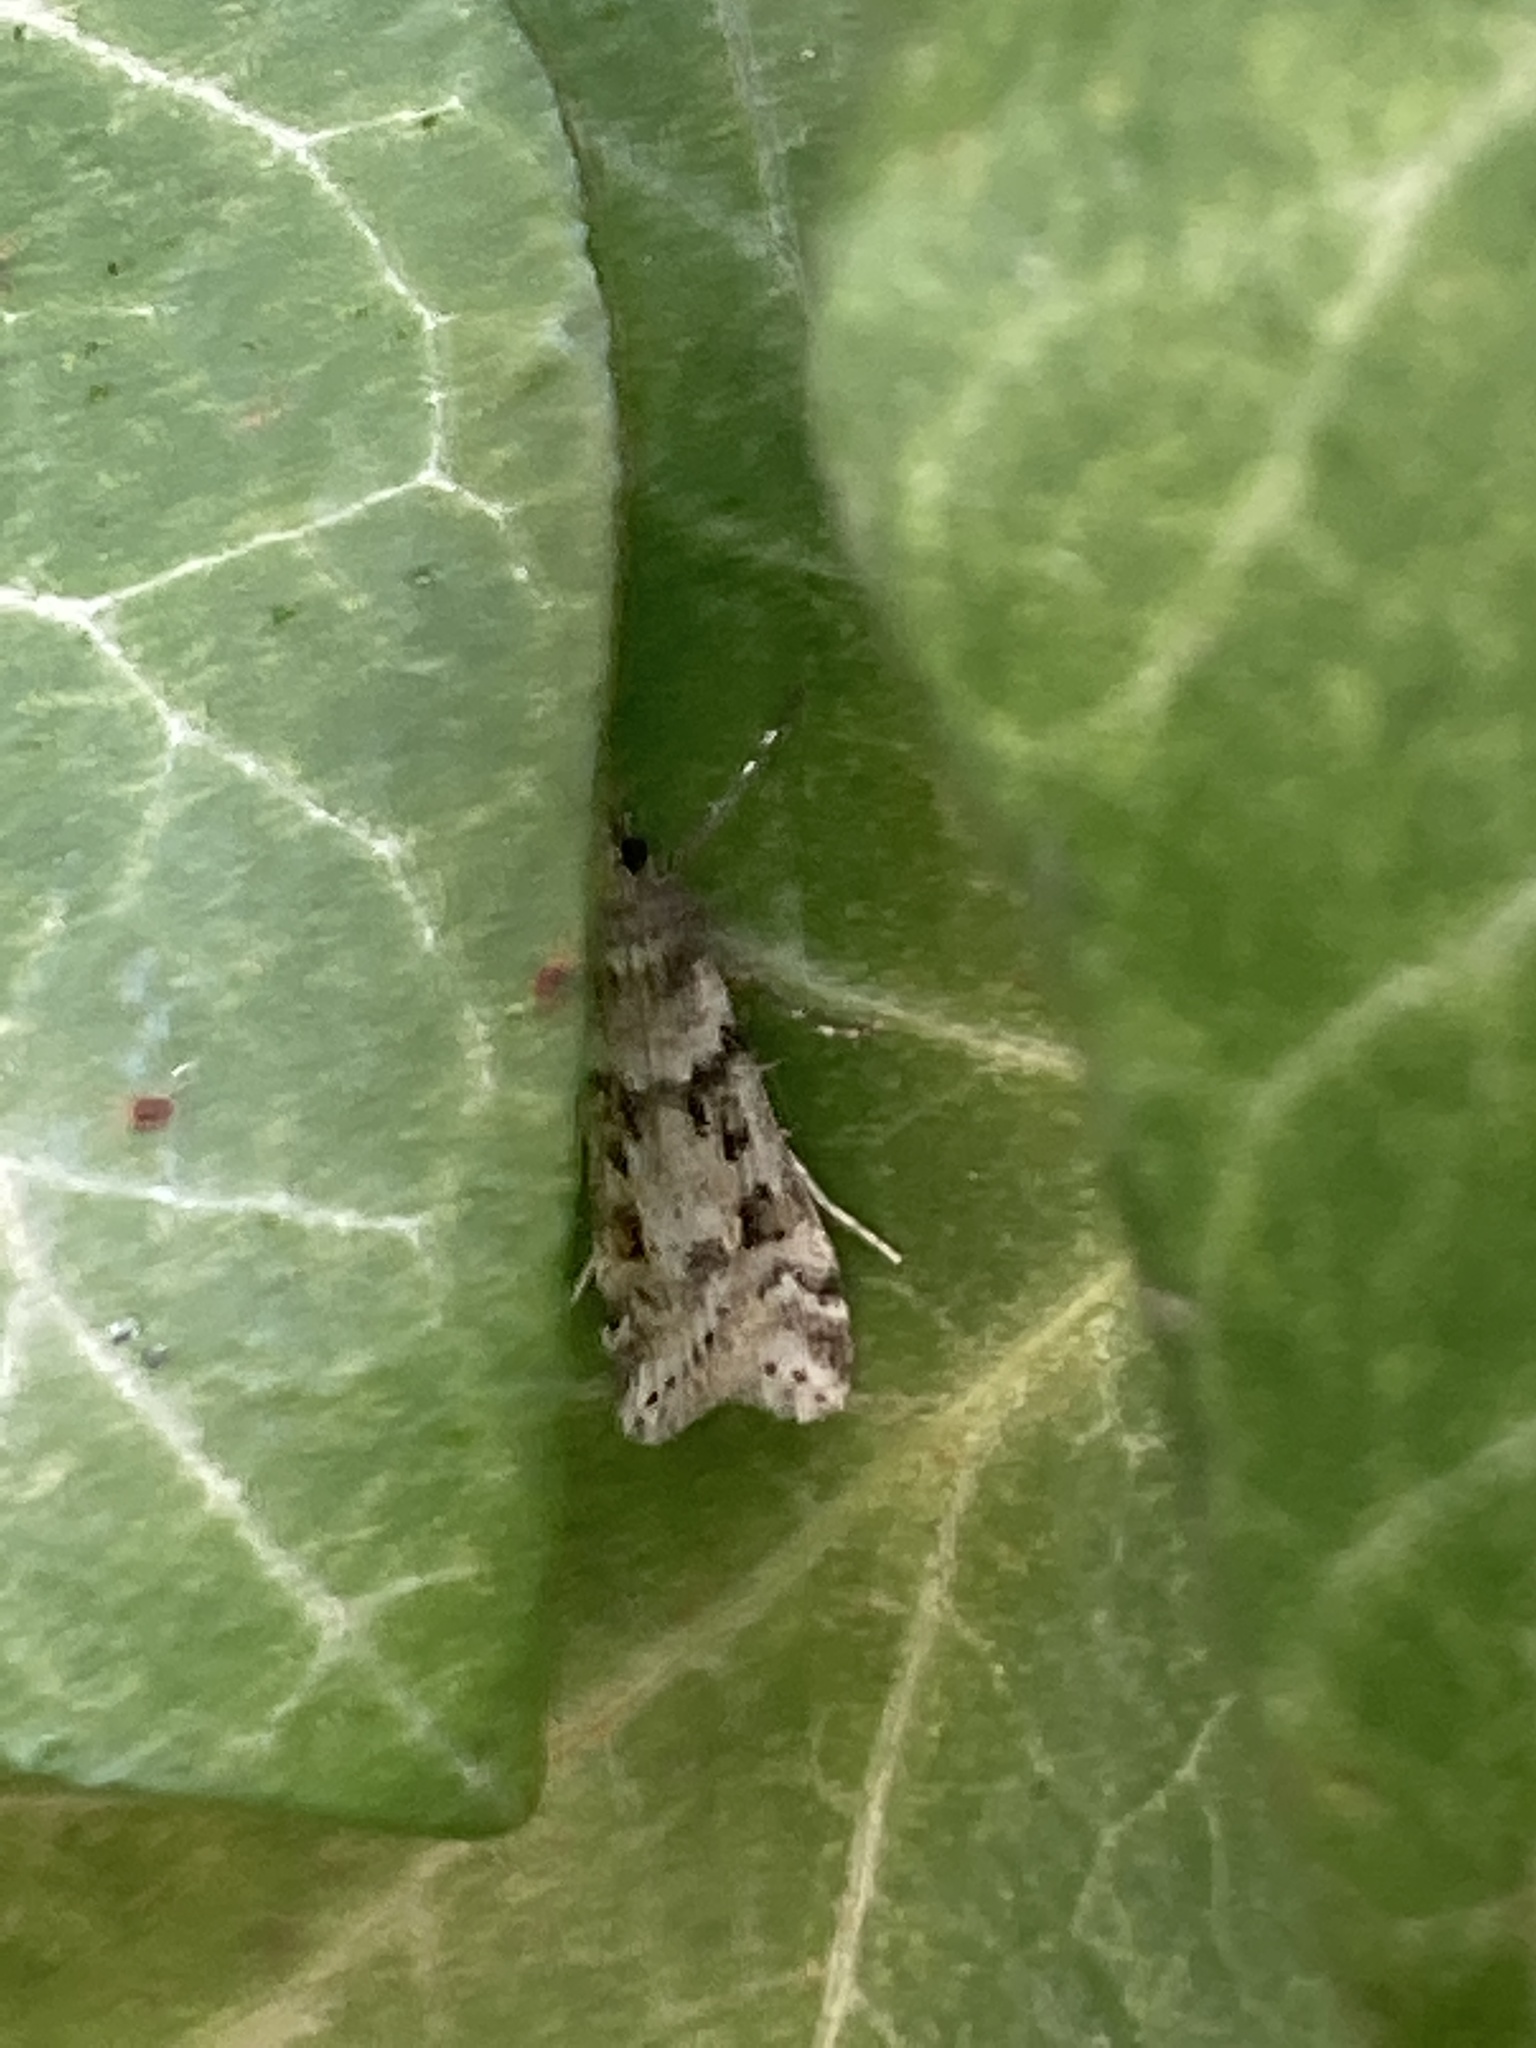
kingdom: Animalia
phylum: Arthropoda
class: Insecta
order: Lepidoptera
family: Crambidae
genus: Eudonia
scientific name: Eudonia angustea
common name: Narrow-winged grey
